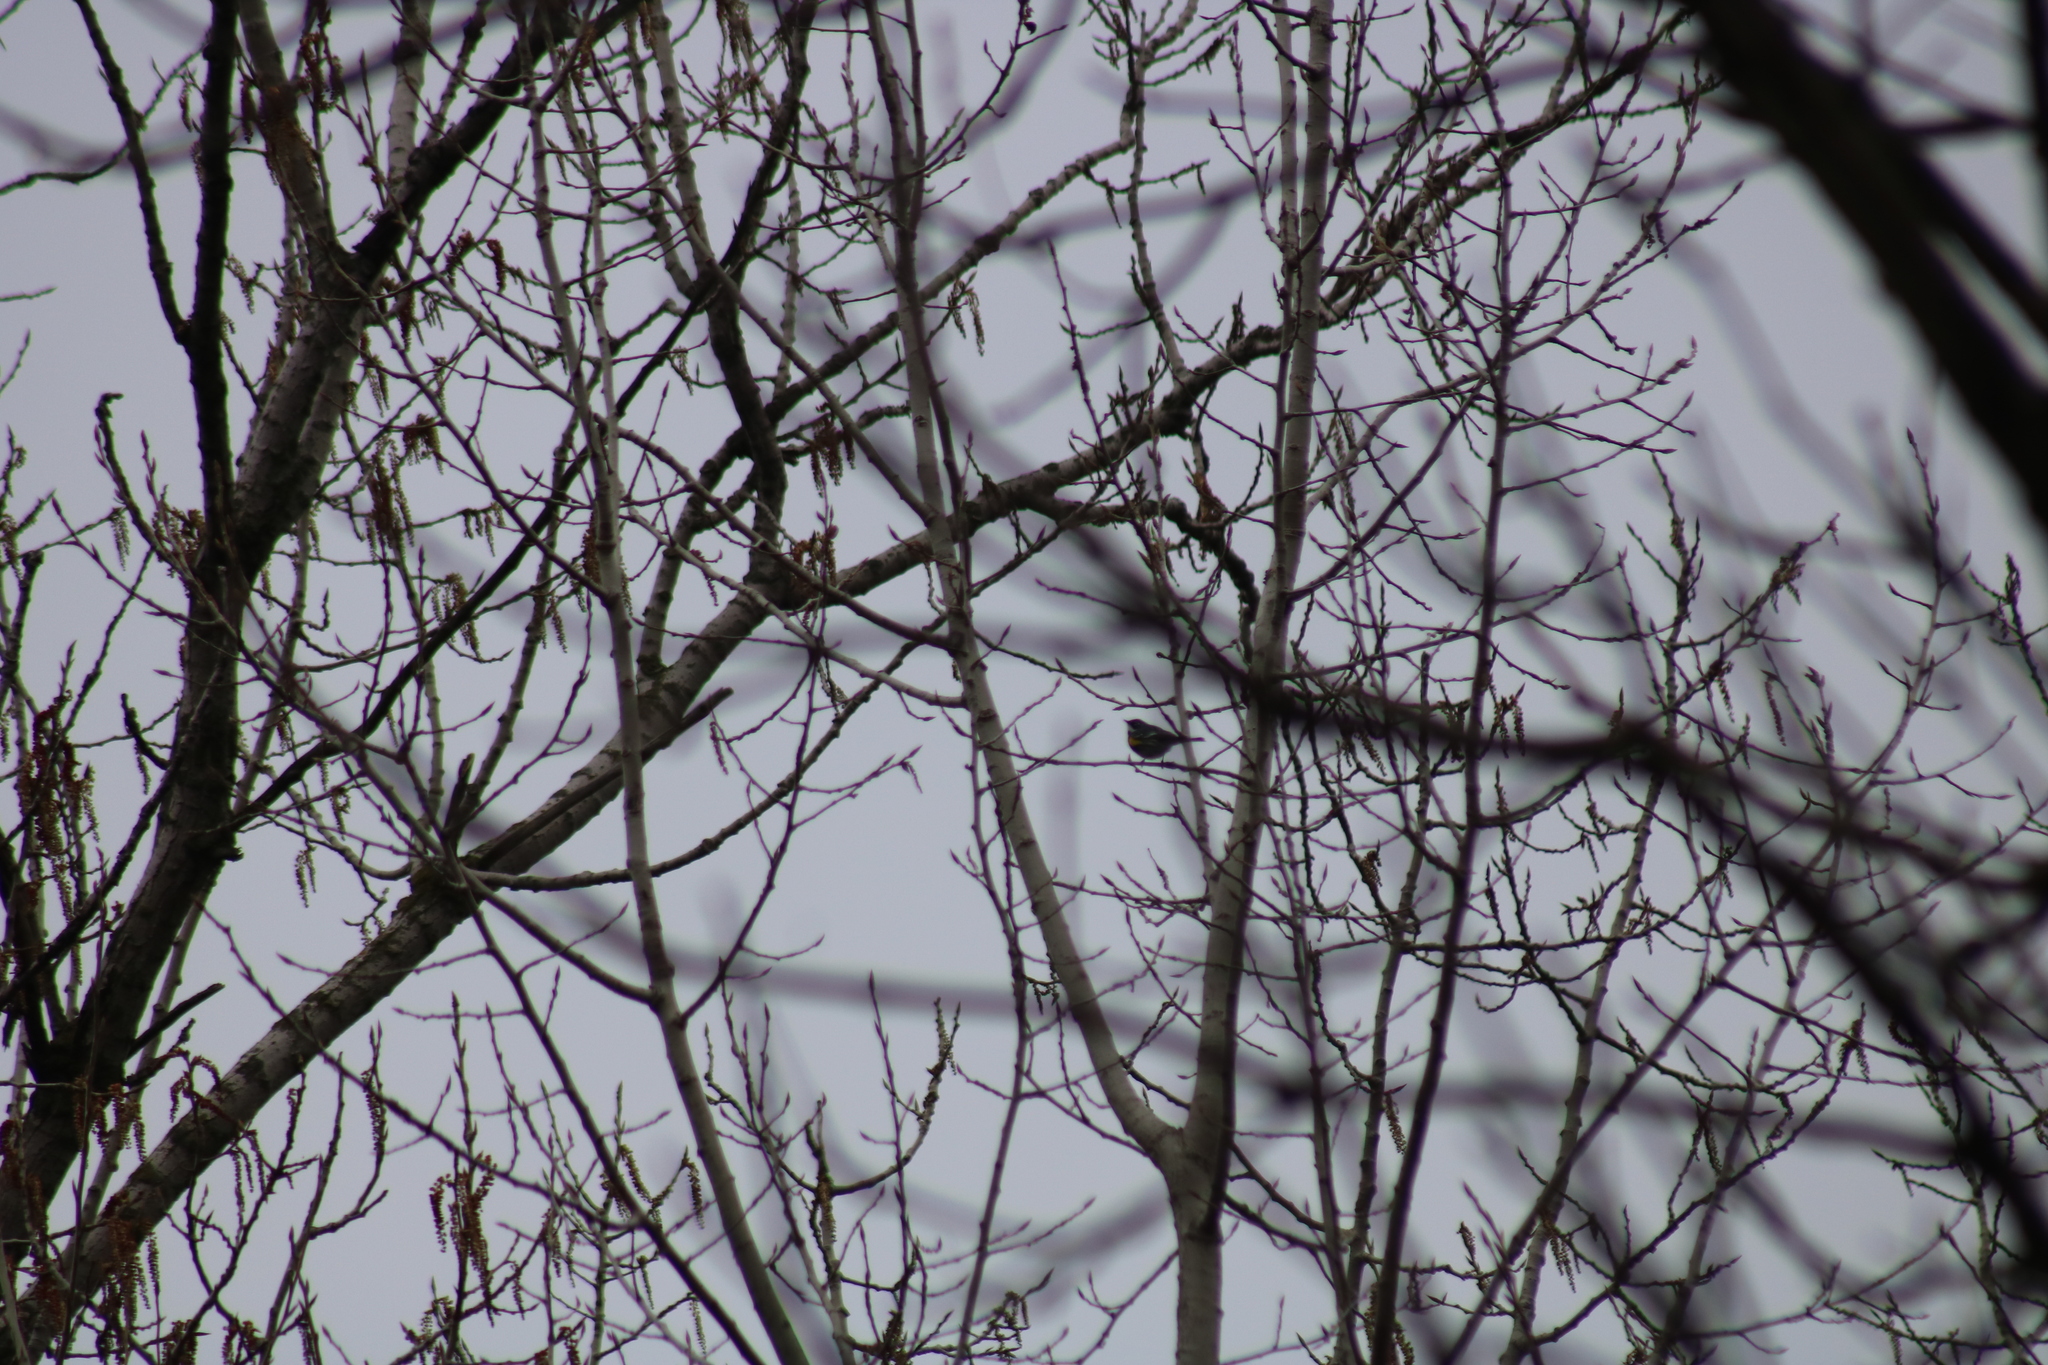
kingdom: Animalia
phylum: Chordata
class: Aves
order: Passeriformes
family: Parulidae
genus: Setophaga
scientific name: Setophaga coronata
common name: Myrtle warbler
